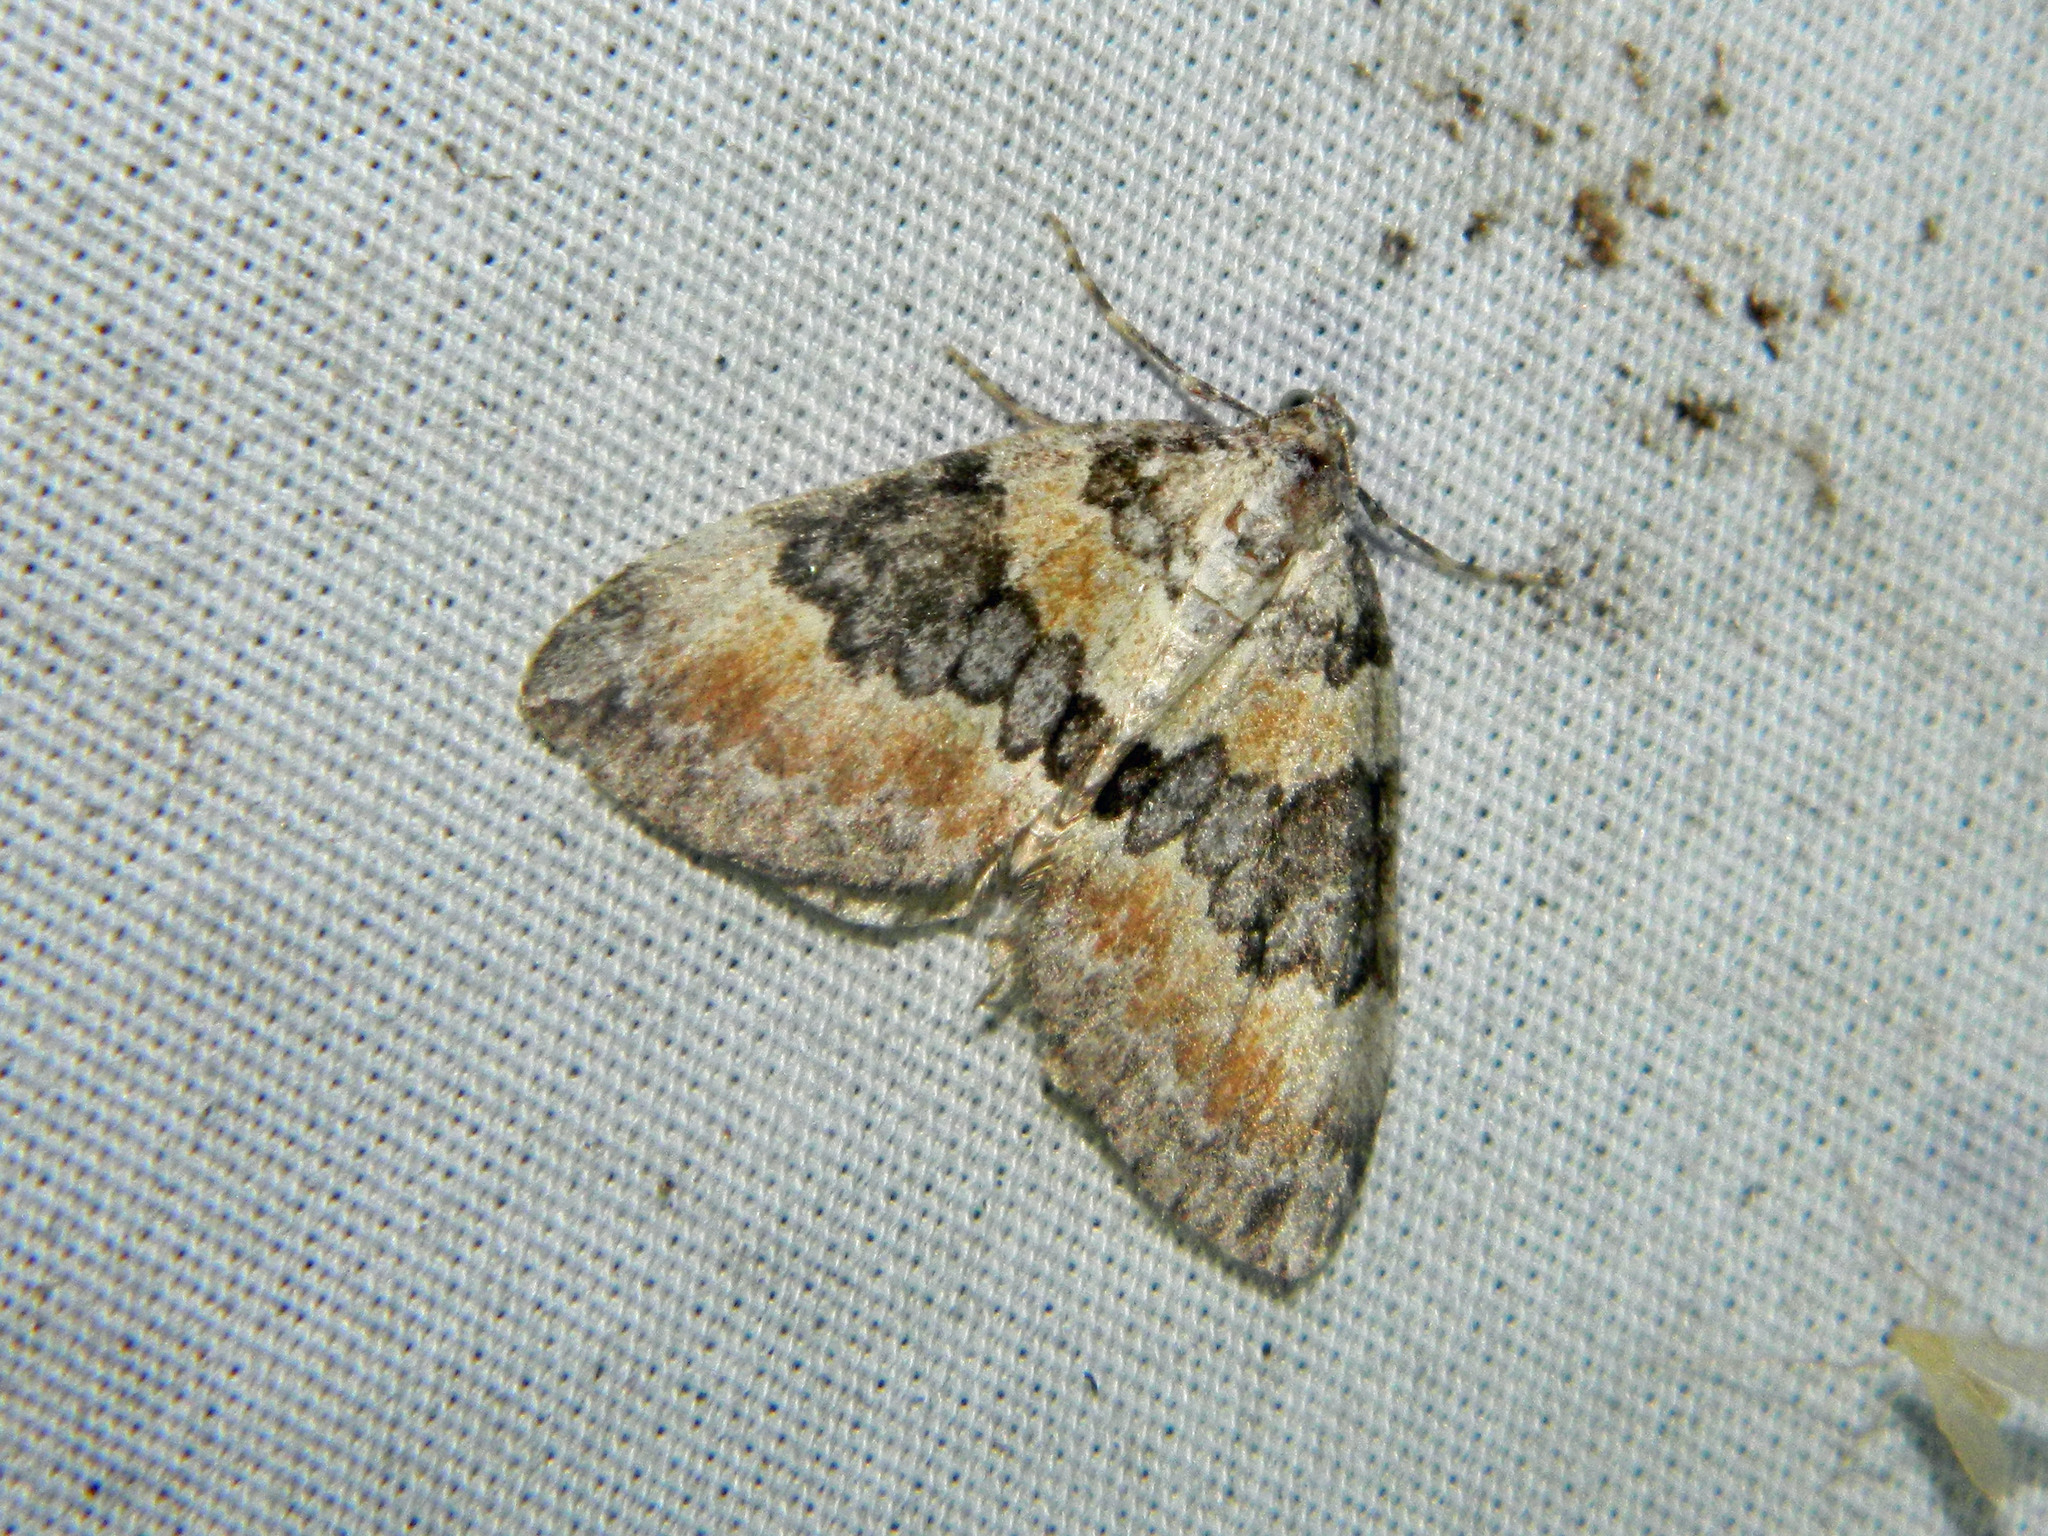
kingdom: Animalia
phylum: Arthropoda
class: Insecta
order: Lepidoptera
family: Geometridae
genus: Dysstroma
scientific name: Dysstroma brunneata
